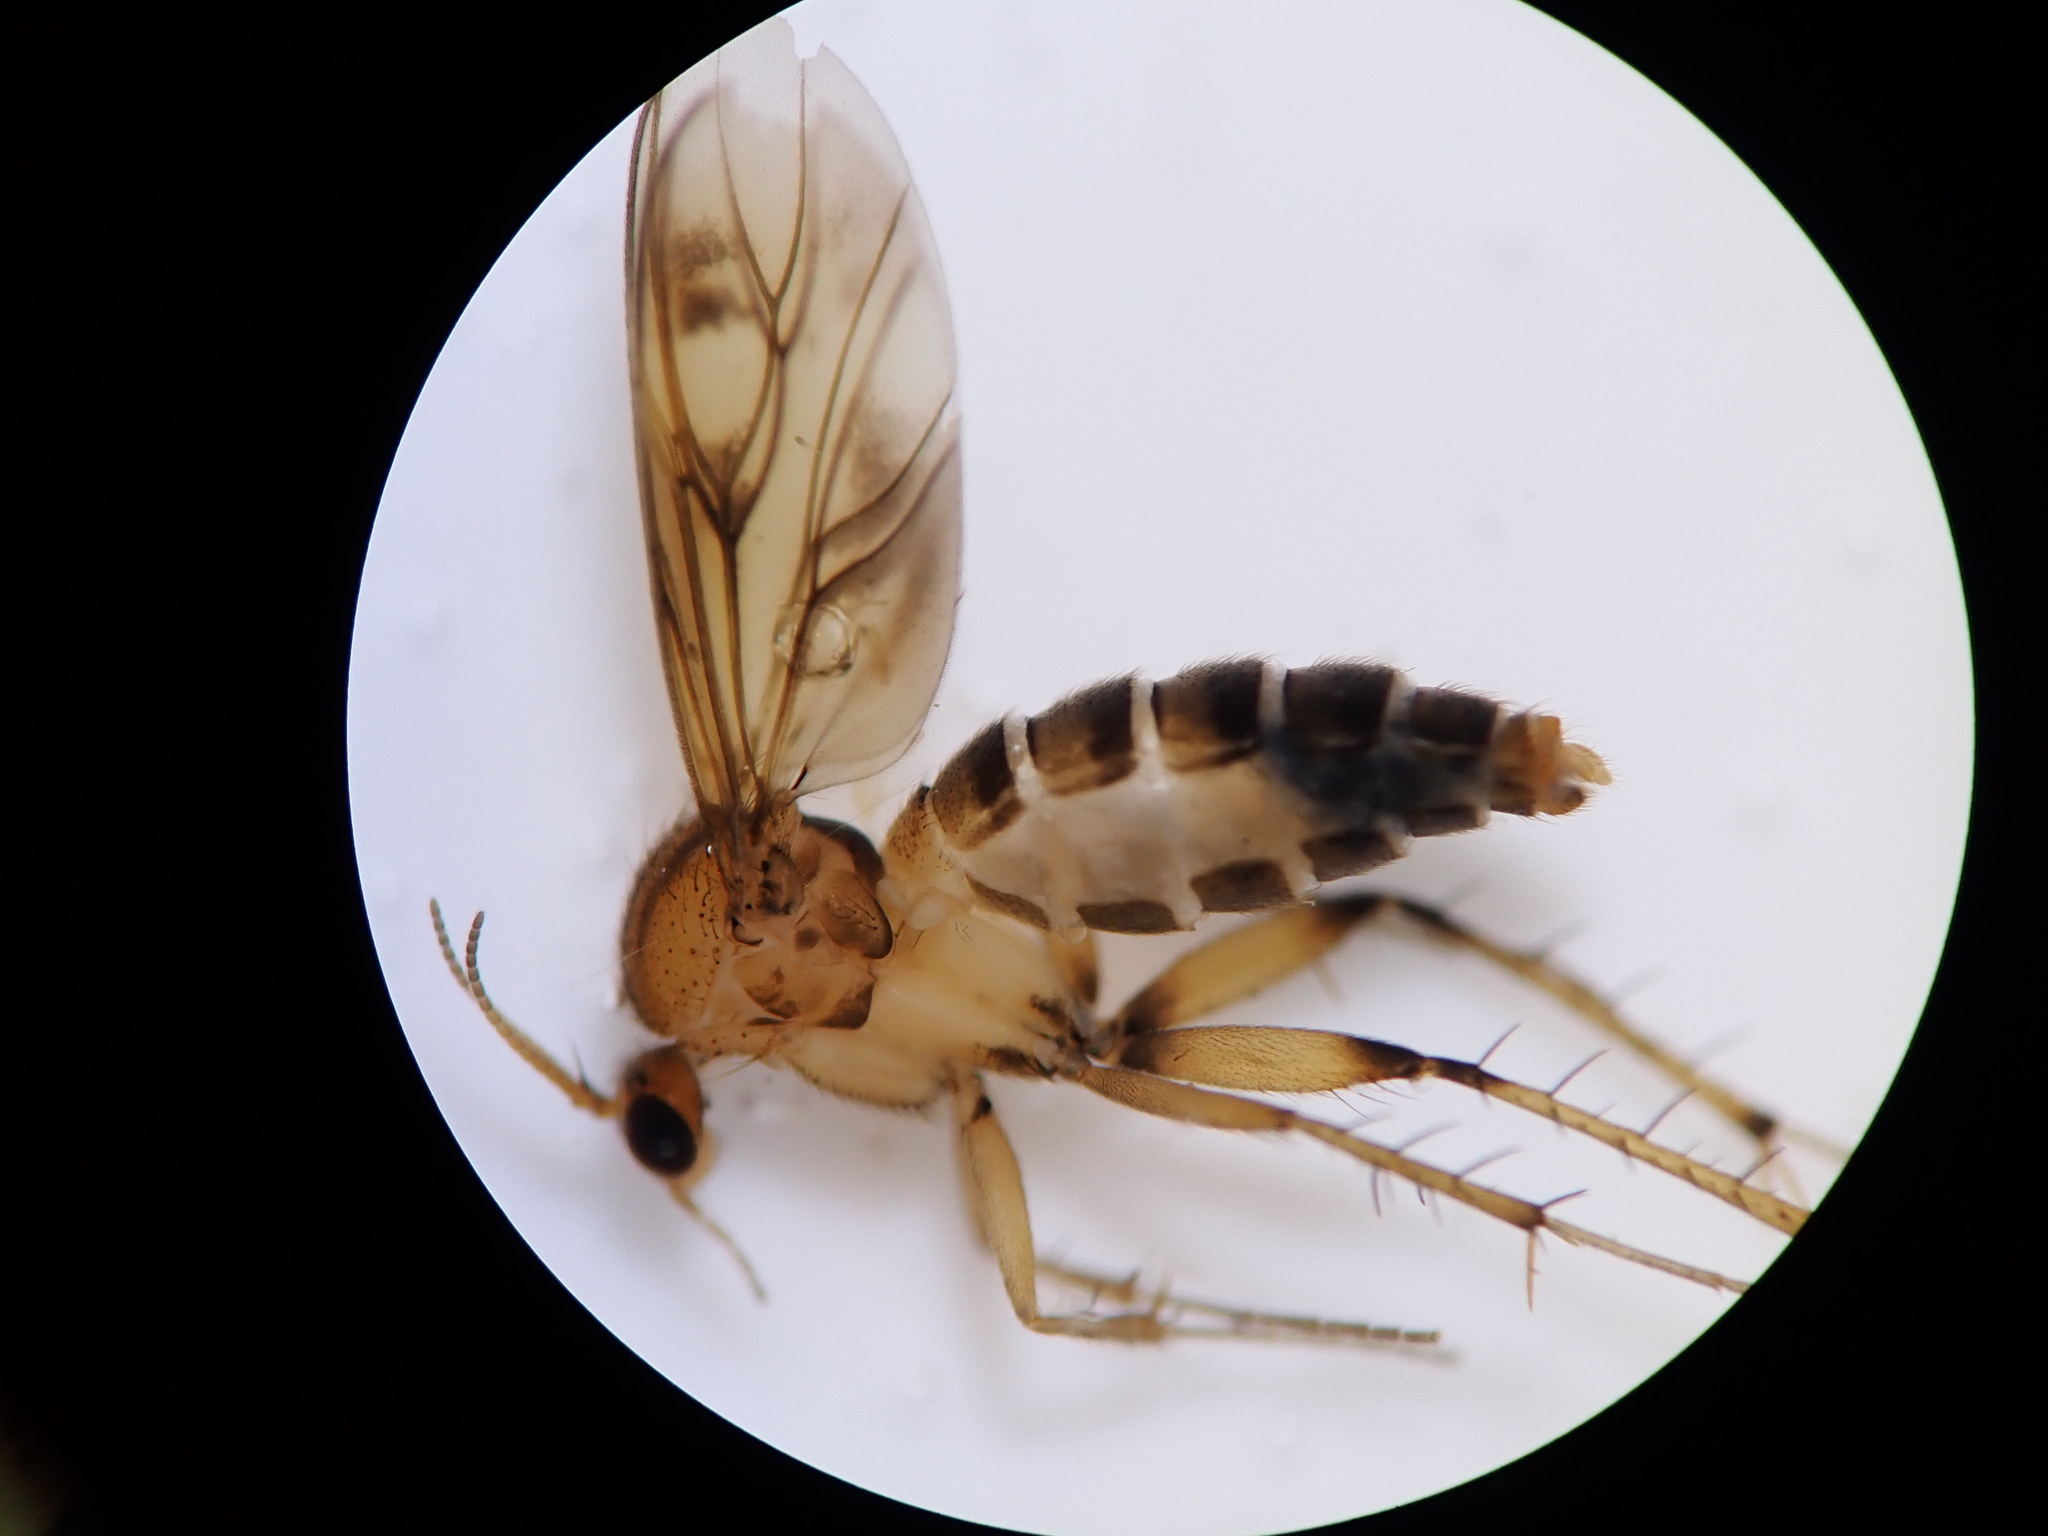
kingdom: Animalia
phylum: Arthropoda
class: Insecta
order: Diptera
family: Mycetophilidae
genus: Anomalomyia
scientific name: Anomalomyia guttata
